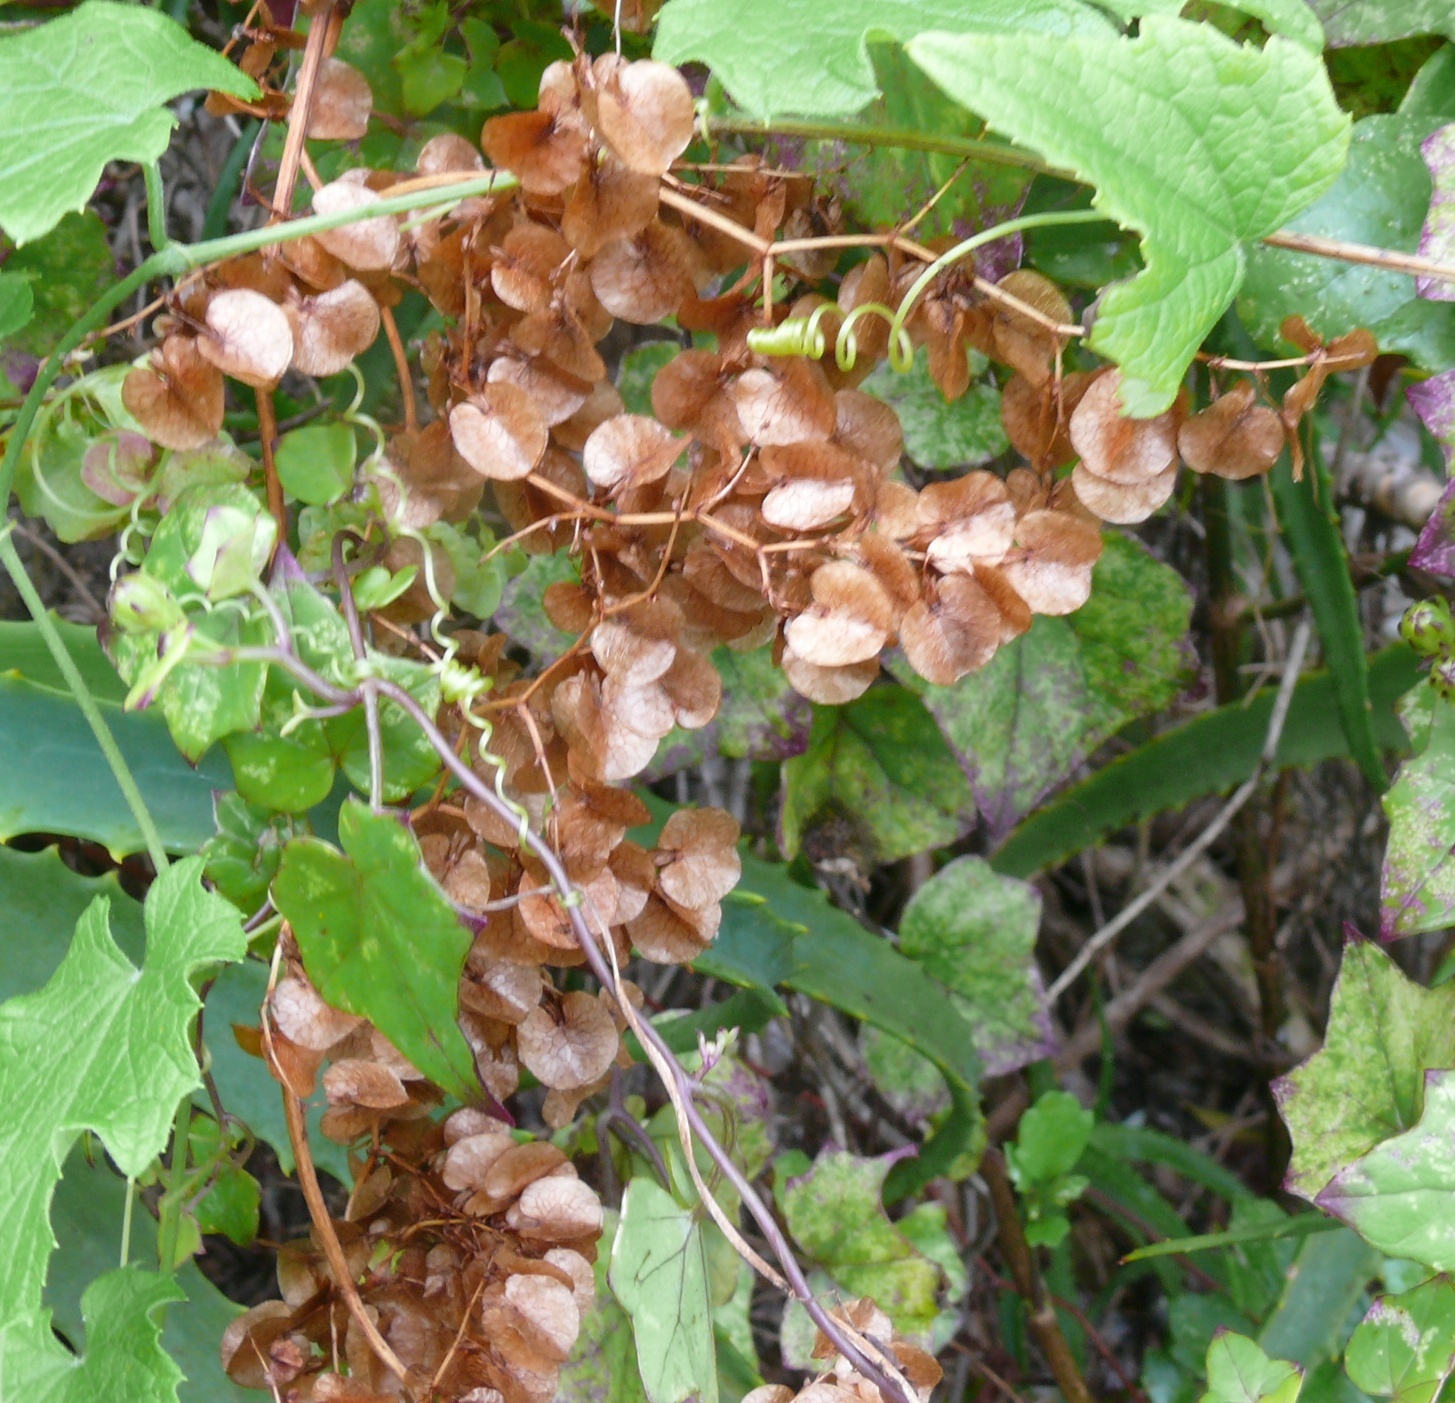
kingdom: Plantae
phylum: Tracheophyta
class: Magnoliopsida
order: Caryophyllales
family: Polygonaceae
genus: Rumex
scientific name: Rumex sagittatus
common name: Climbing dock
